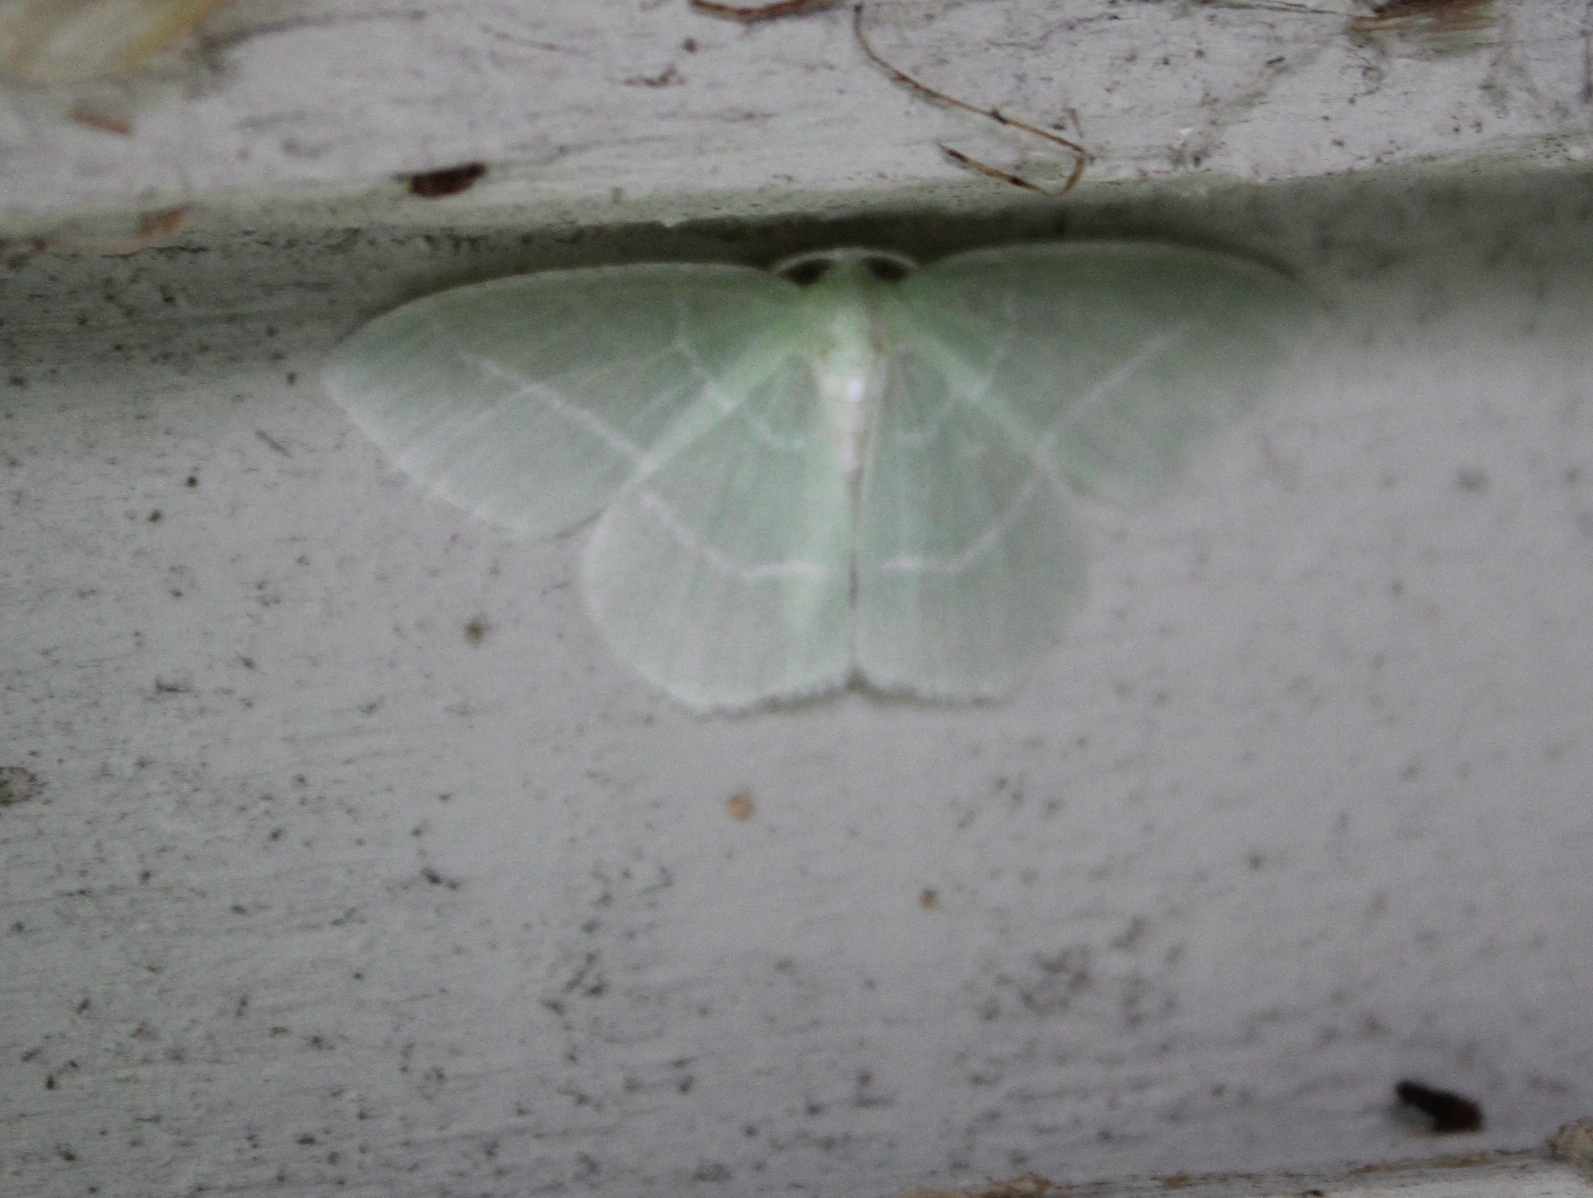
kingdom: Animalia
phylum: Arthropoda
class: Insecta
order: Lepidoptera
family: Geometridae
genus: Nemoria
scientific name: Nemoria mimosaria
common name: White-fringed emerald
